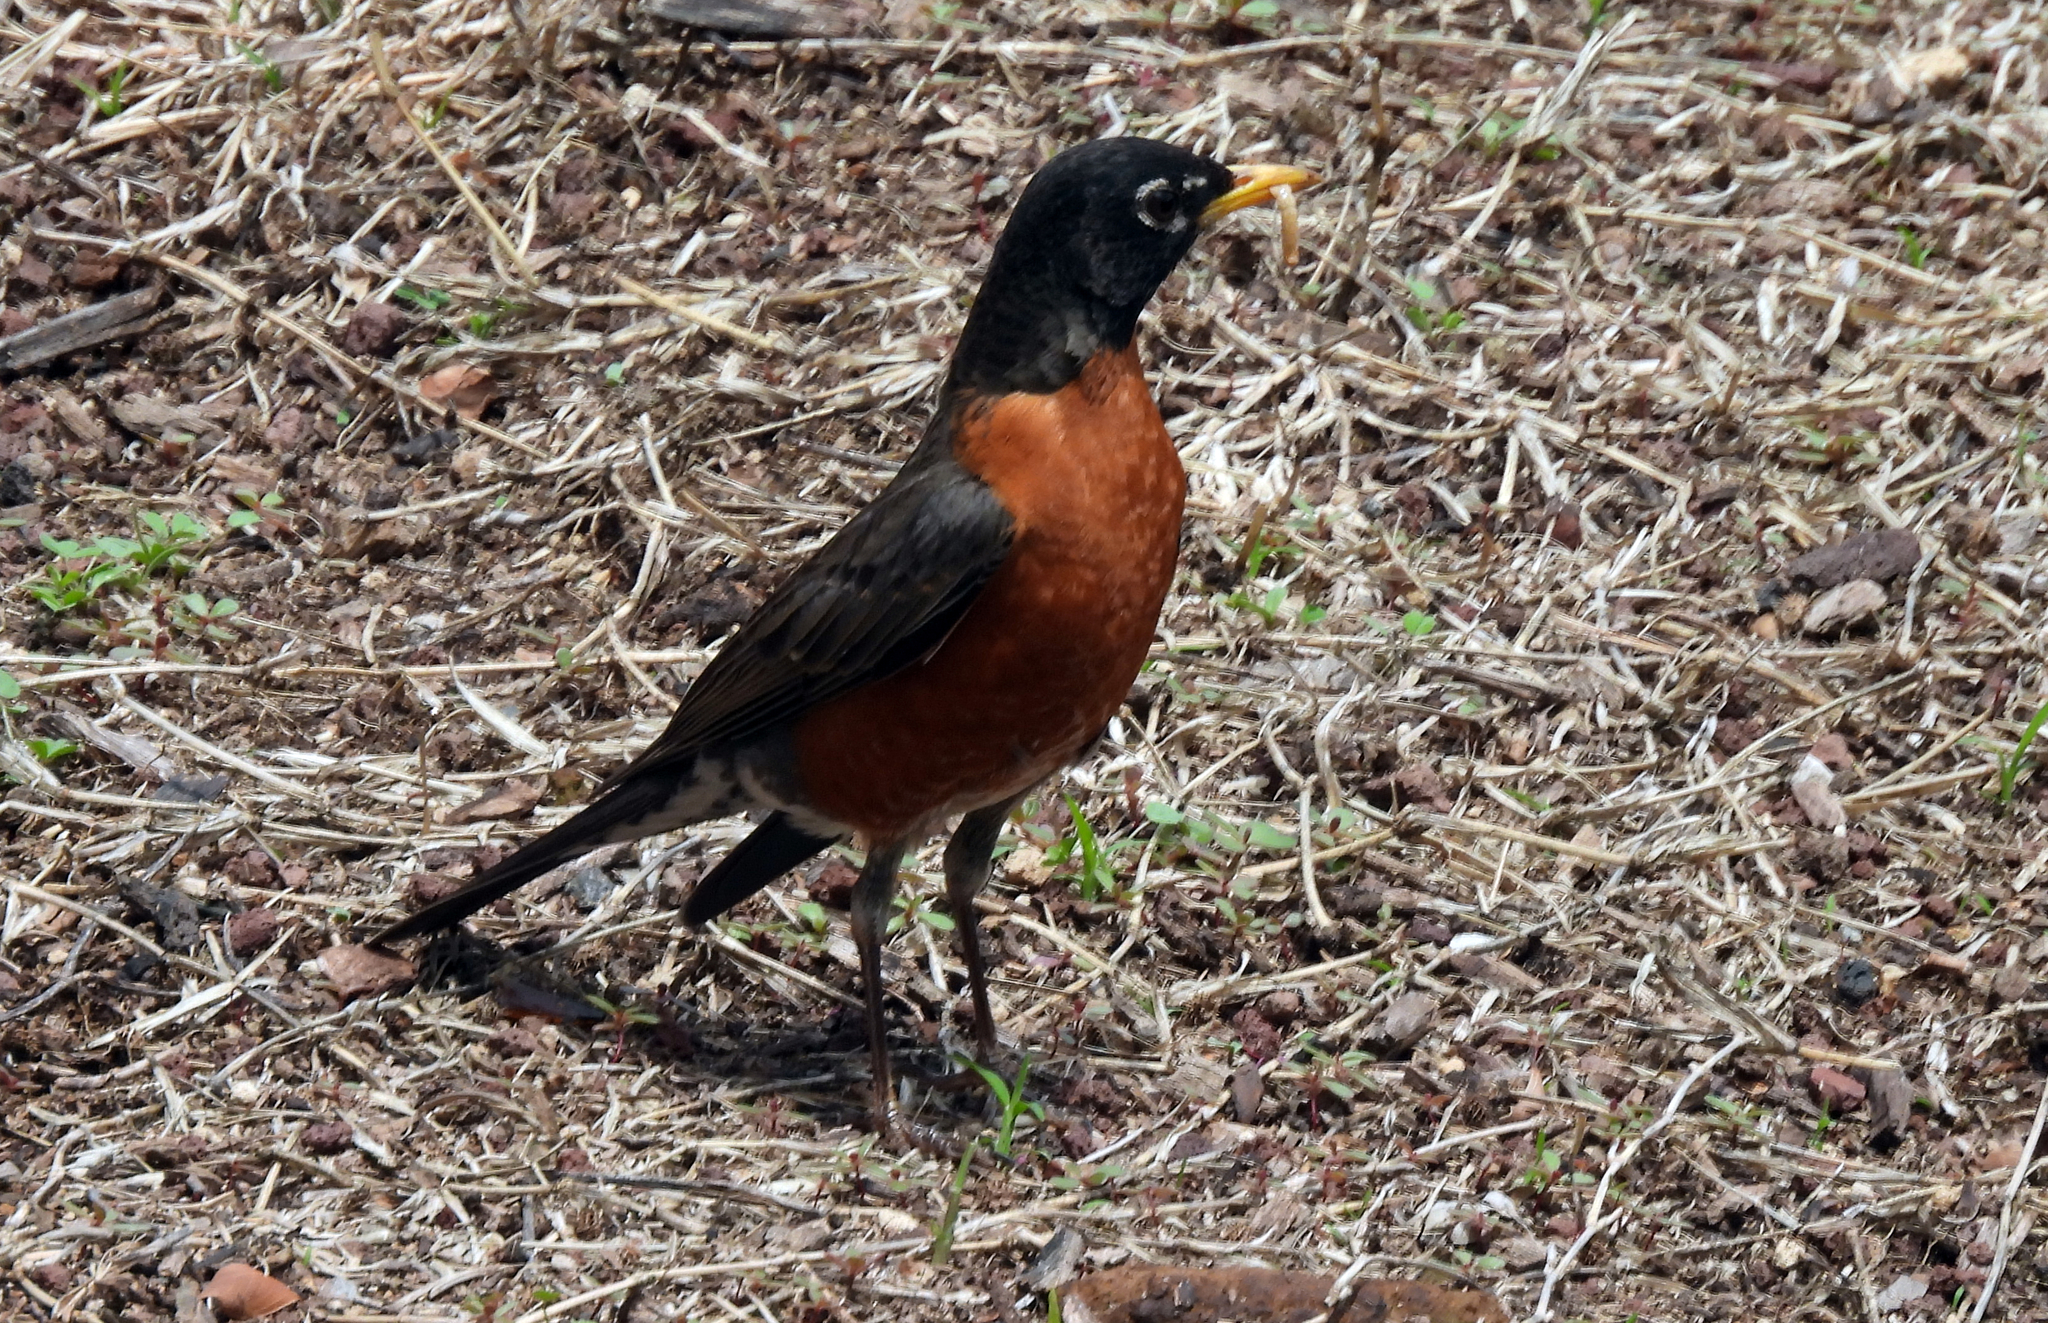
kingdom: Animalia
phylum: Chordata
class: Aves
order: Passeriformes
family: Turdidae
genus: Turdus
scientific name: Turdus migratorius
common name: American robin
